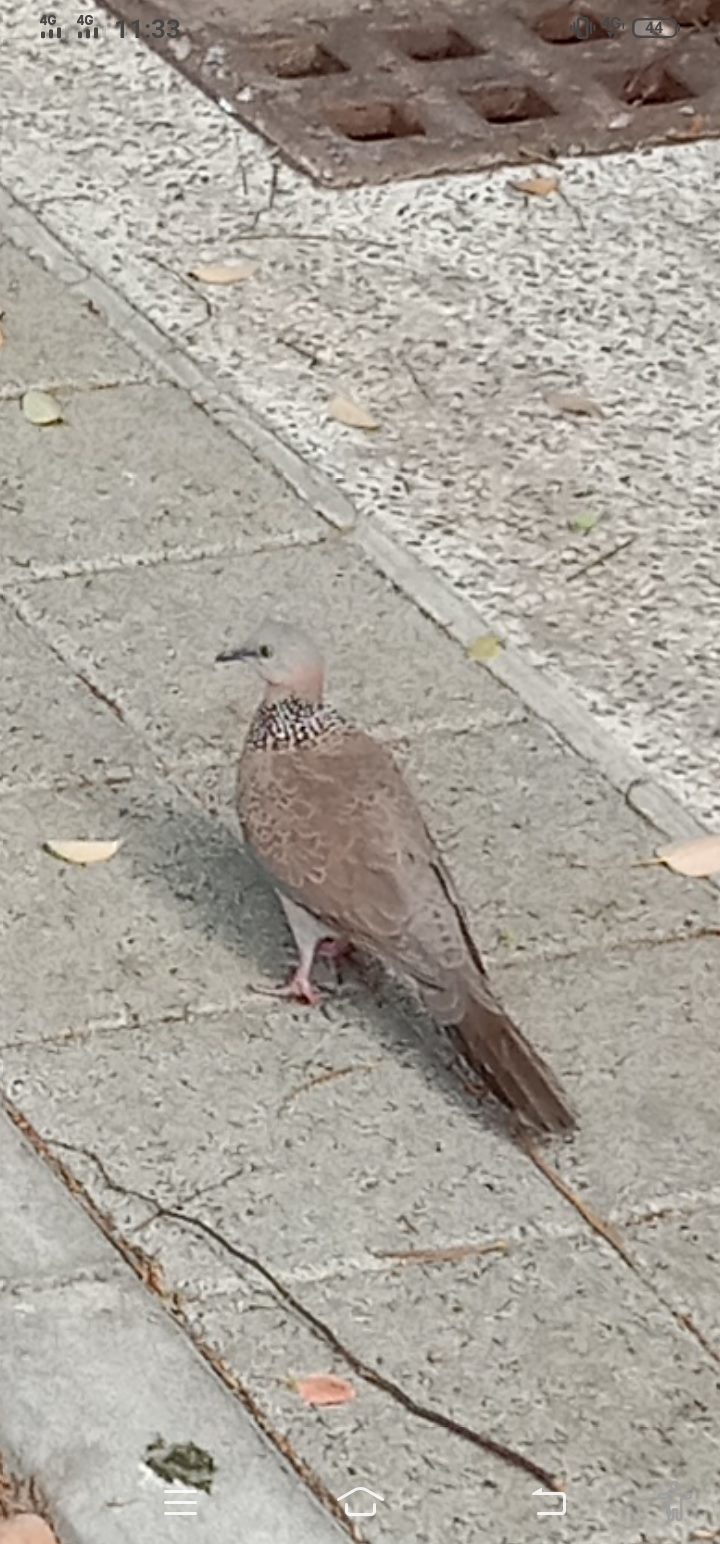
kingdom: Animalia
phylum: Chordata
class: Aves
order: Columbiformes
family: Columbidae
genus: Spilopelia
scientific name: Spilopelia chinensis
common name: Spotted dove
